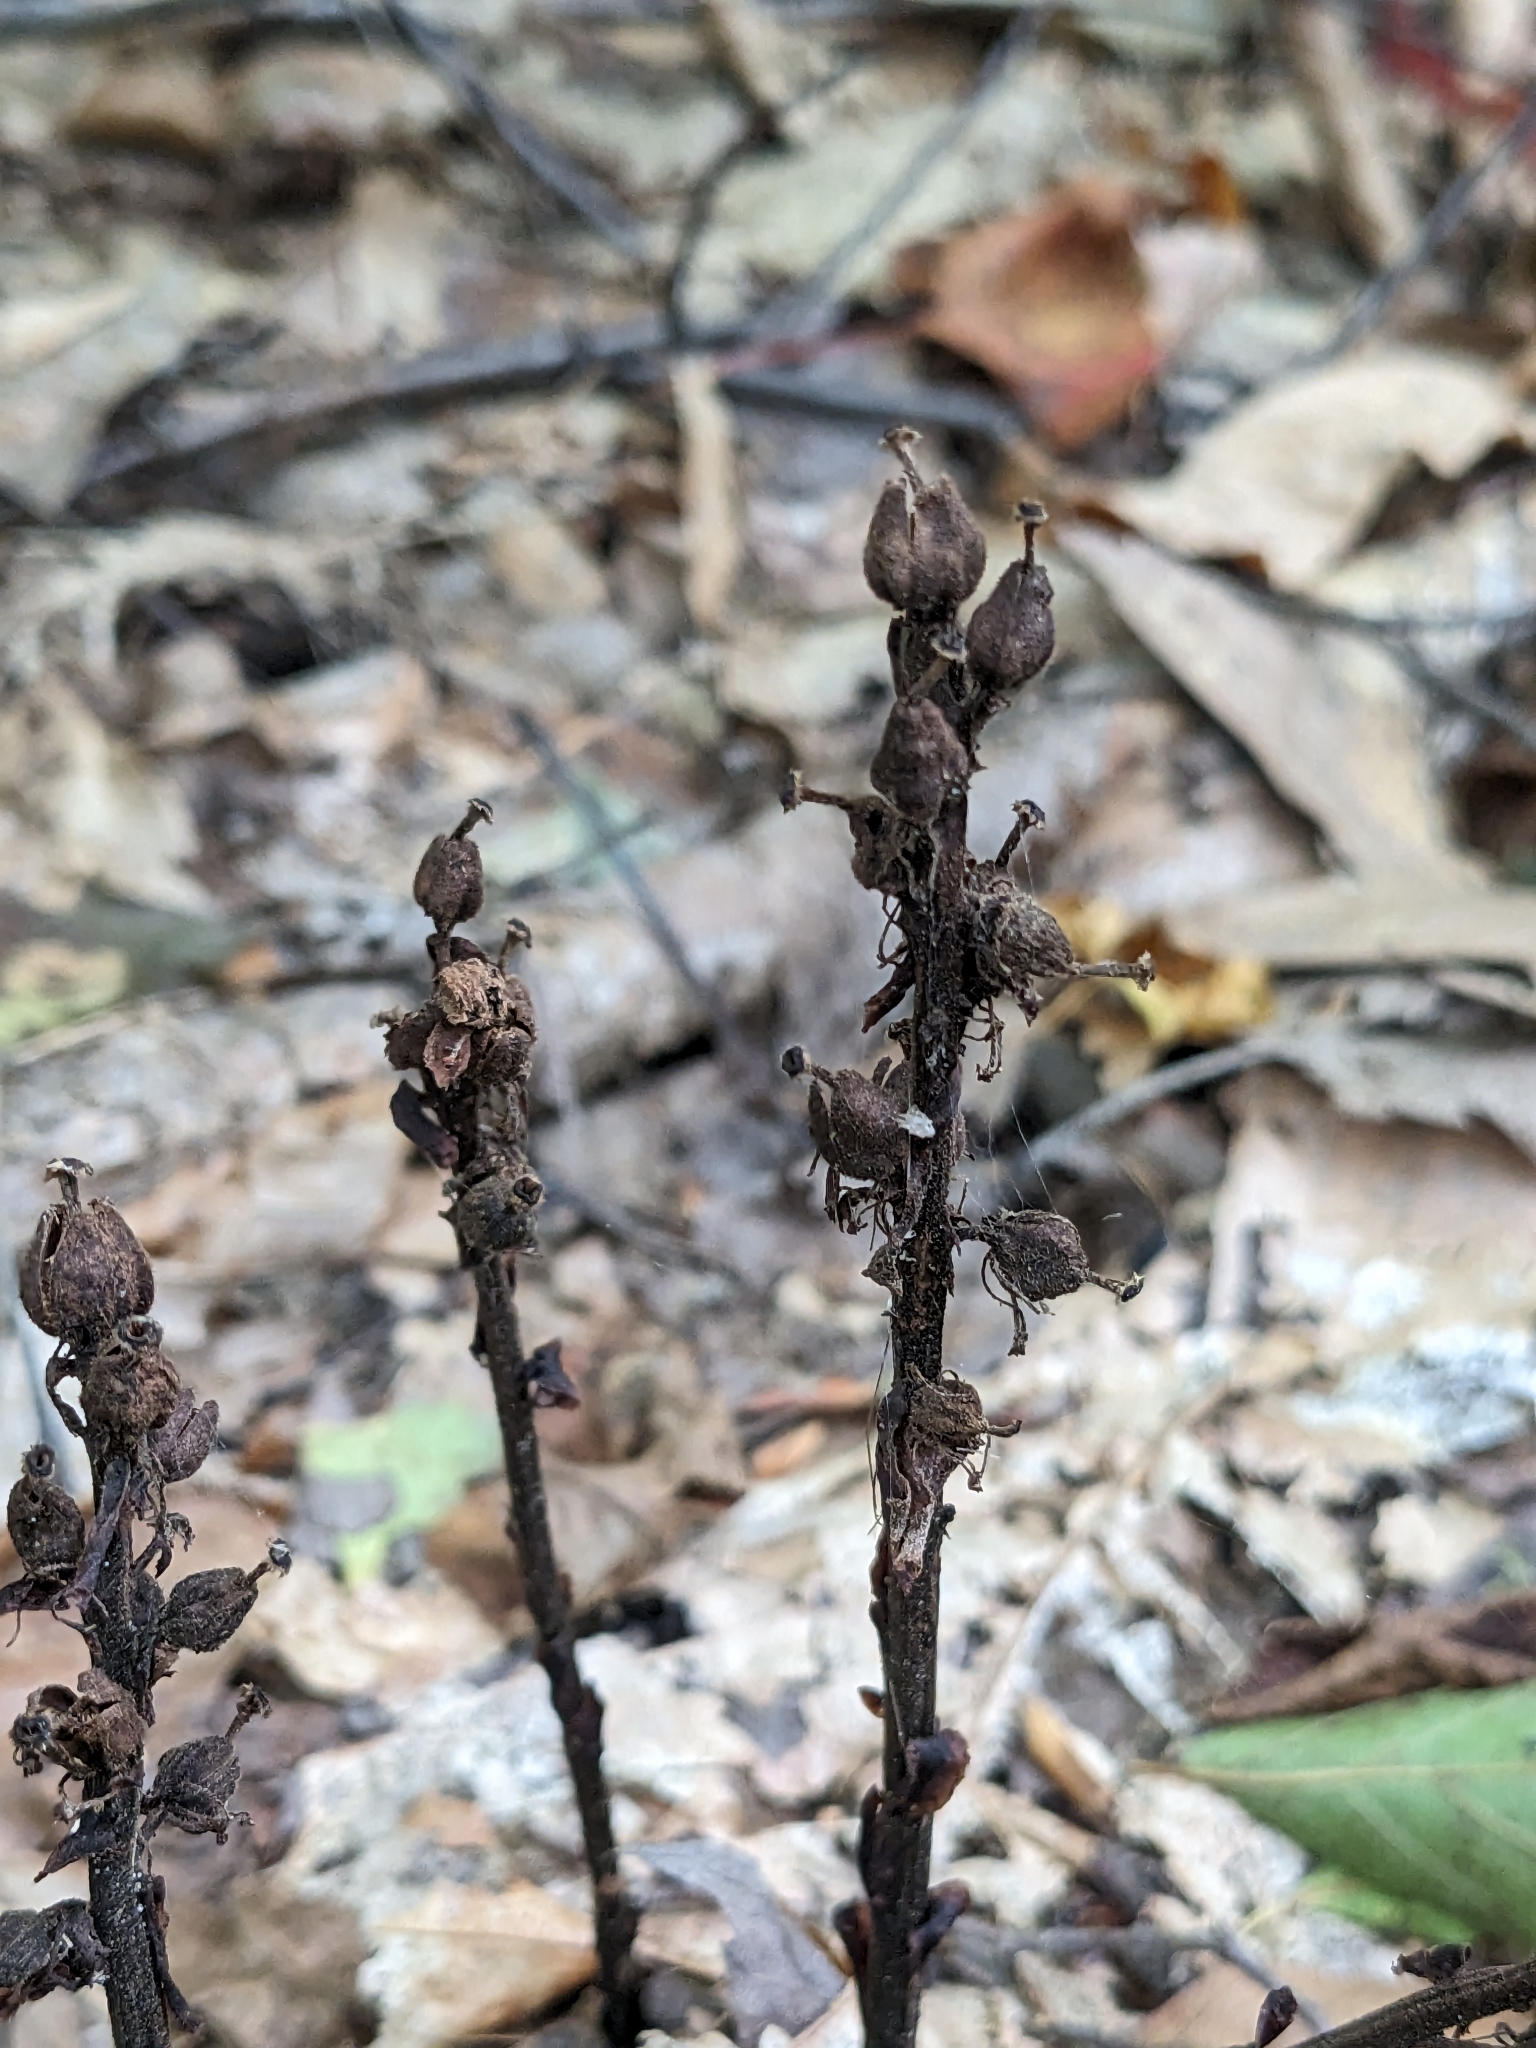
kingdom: Plantae
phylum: Tracheophyta
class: Magnoliopsida
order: Ericales
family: Ericaceae
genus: Hypopitys
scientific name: Hypopitys monotropa
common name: Yellow bird's-nest
